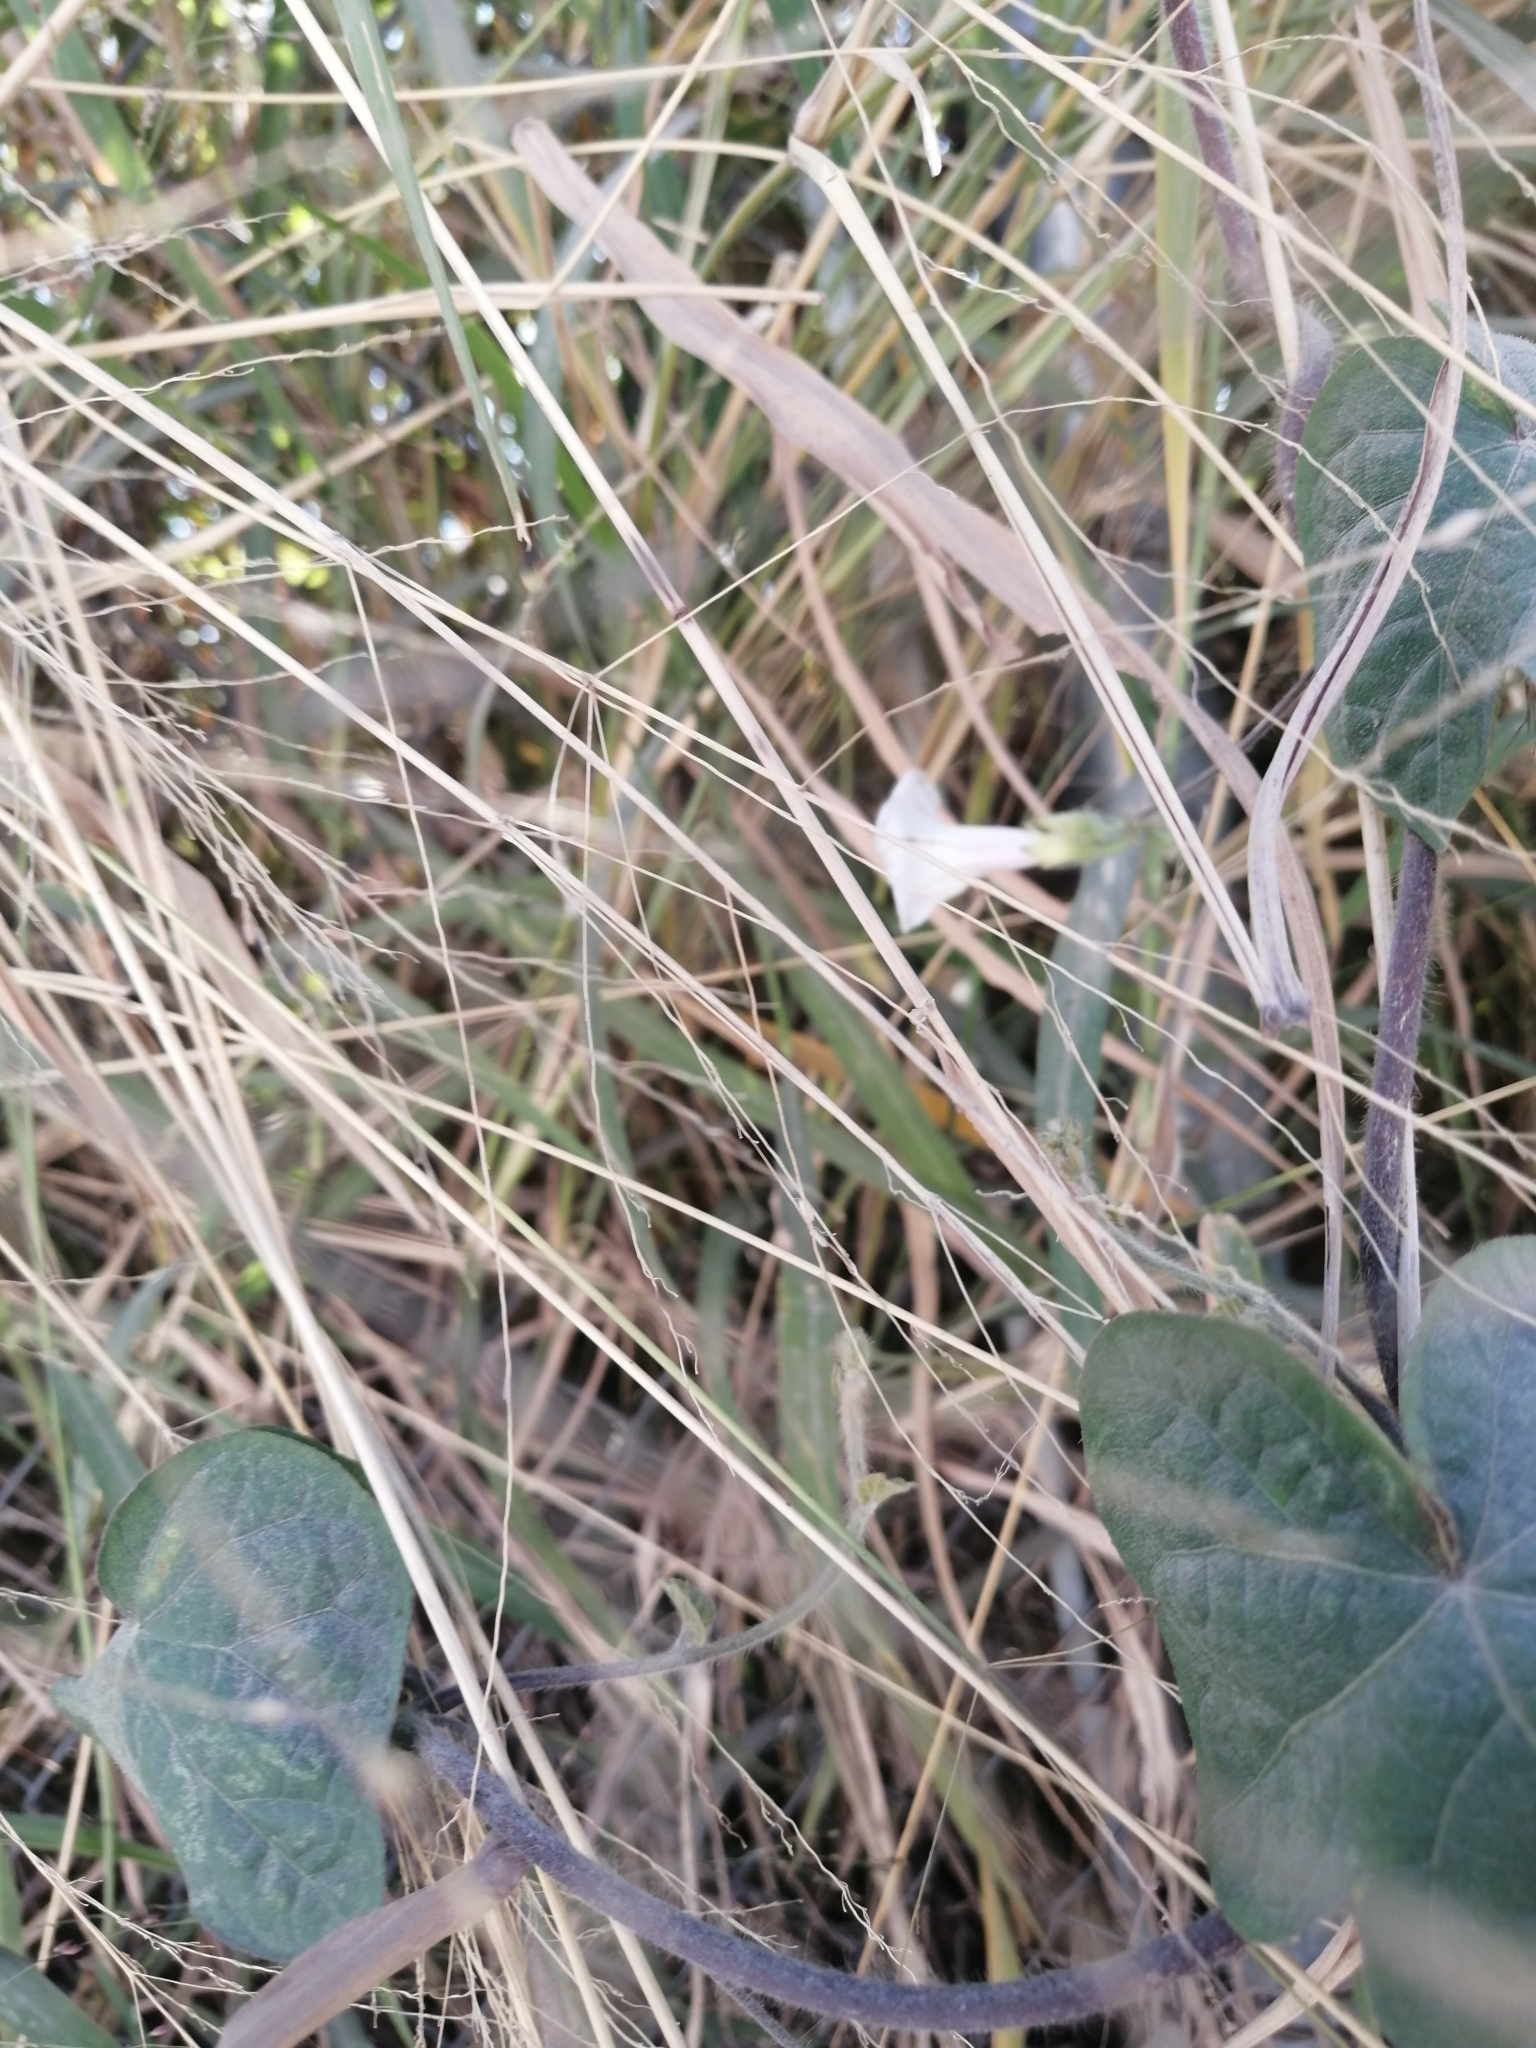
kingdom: Plantae
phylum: Tracheophyta
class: Magnoliopsida
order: Solanales
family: Convolvulaceae
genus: Ipomoea
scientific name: Ipomoea purpurea
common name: Common morning-glory
